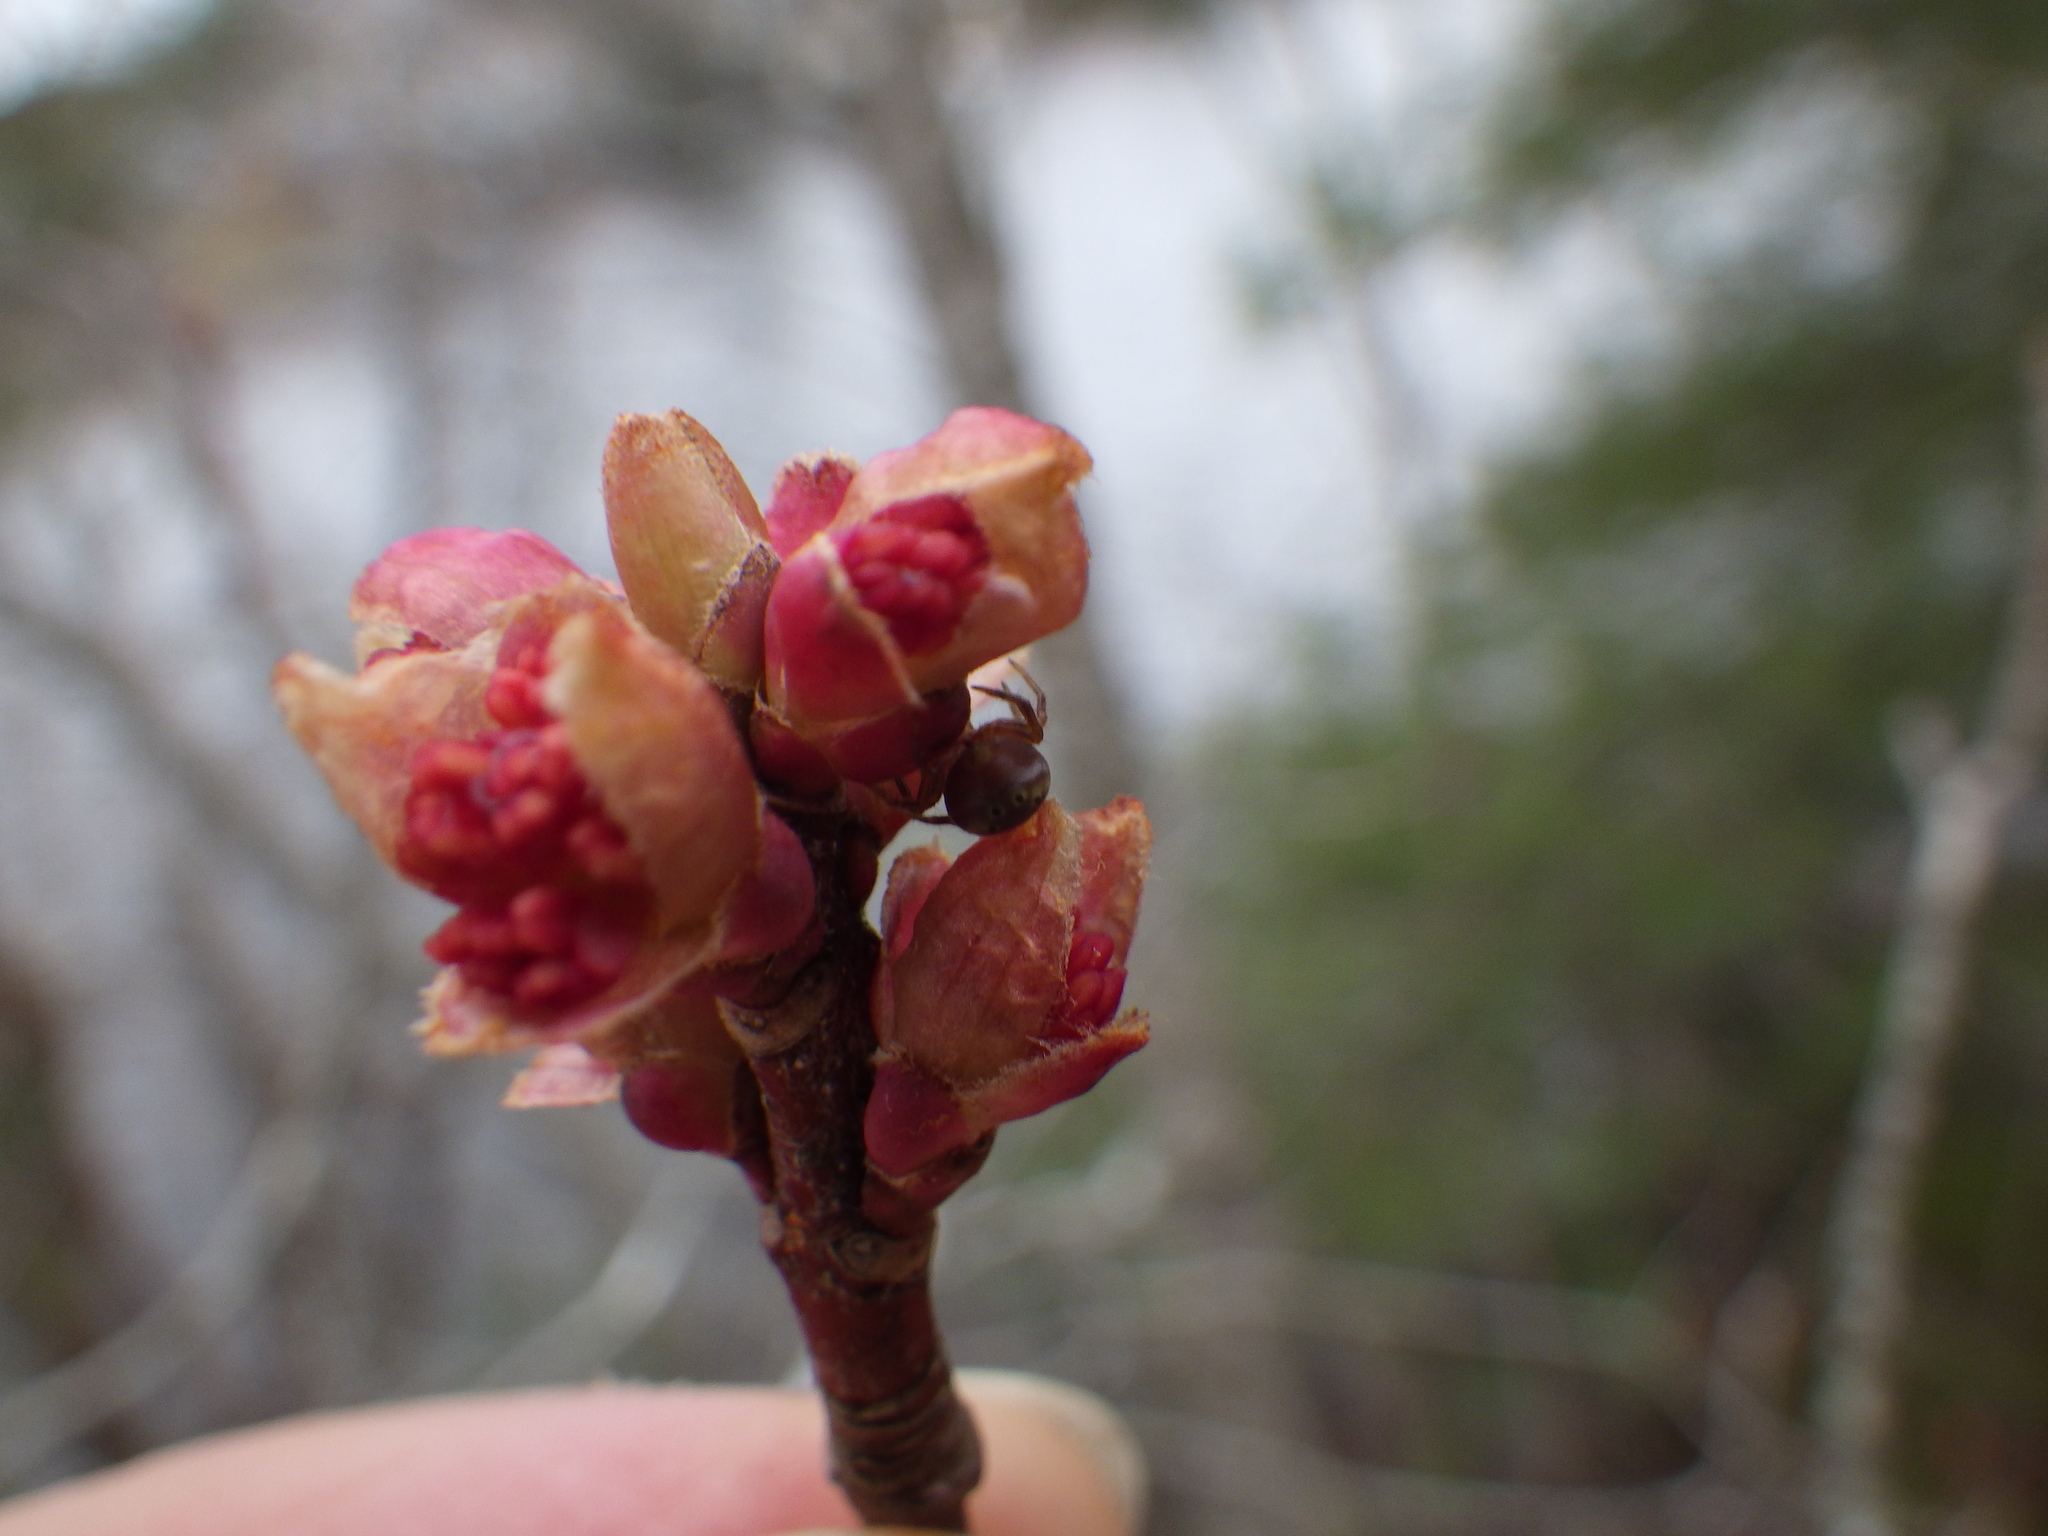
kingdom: Plantae
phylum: Tracheophyta
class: Magnoliopsida
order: Sapindales
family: Sapindaceae
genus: Acer
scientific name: Acer rubrum
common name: Red maple
